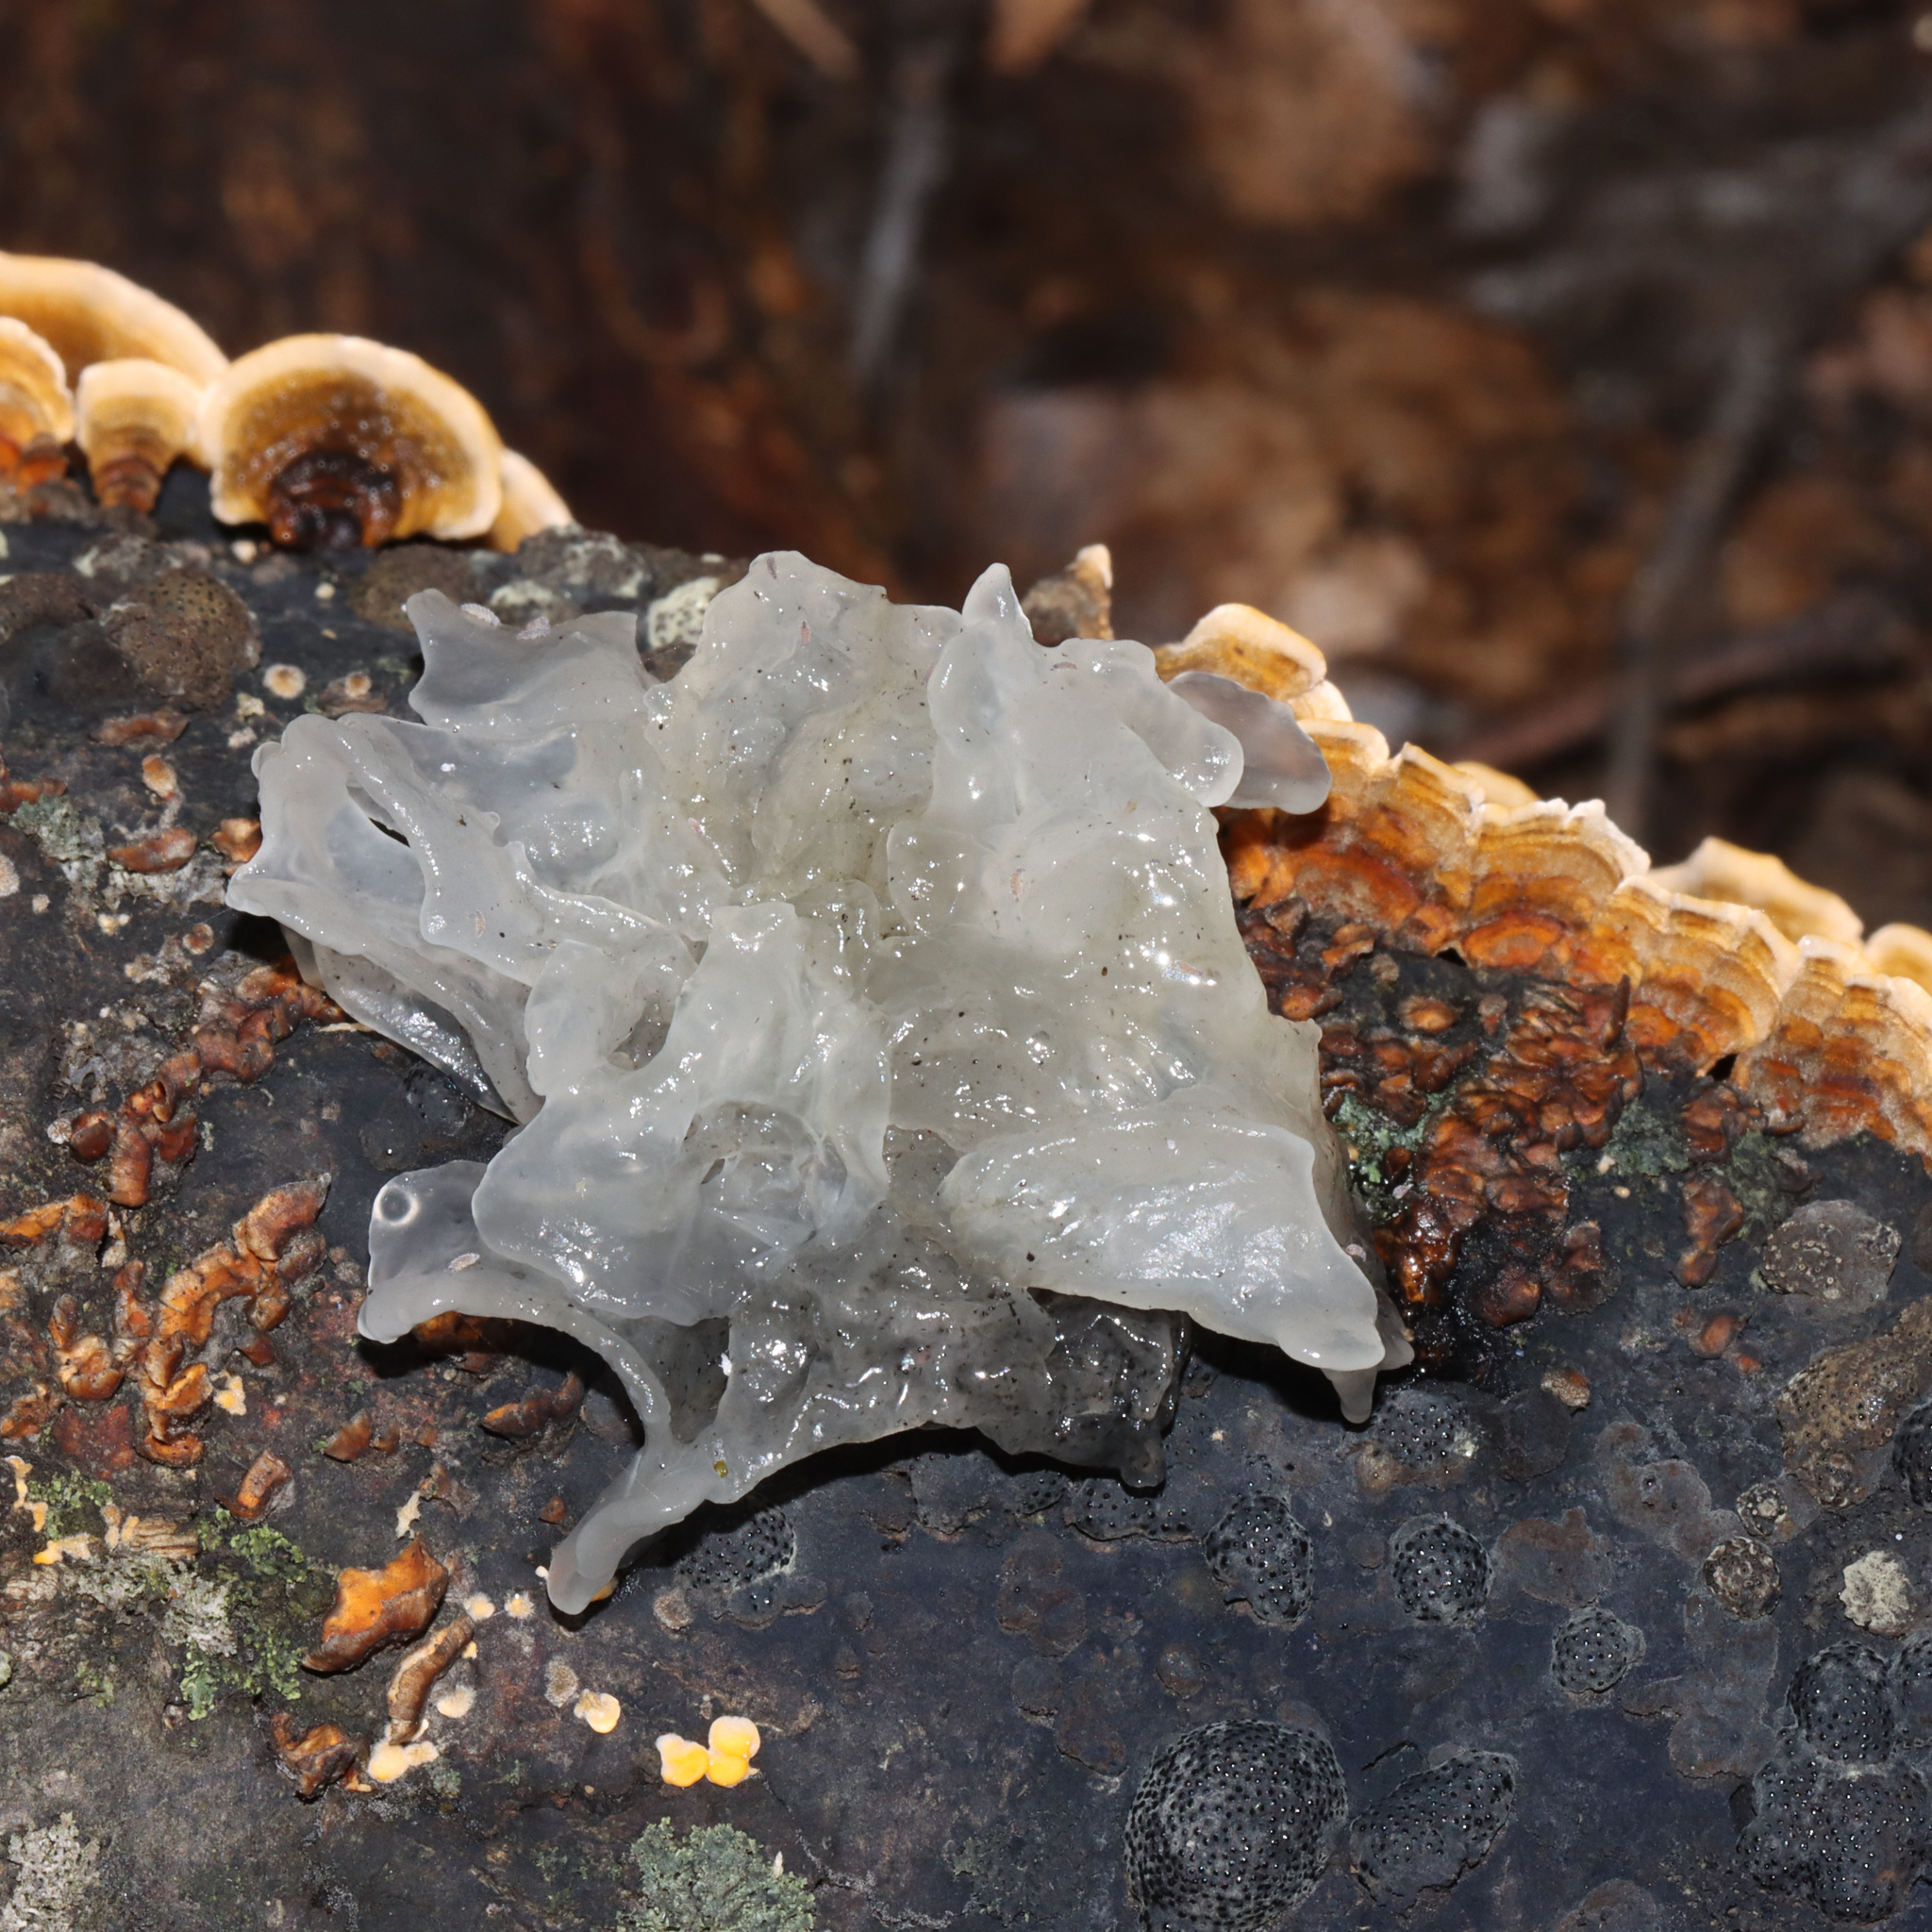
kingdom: Fungi
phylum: Basidiomycota
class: Tremellomycetes
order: Tremellales
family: Tremellaceae
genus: Tremella
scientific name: Tremella fuciformis
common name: Snow fungus
